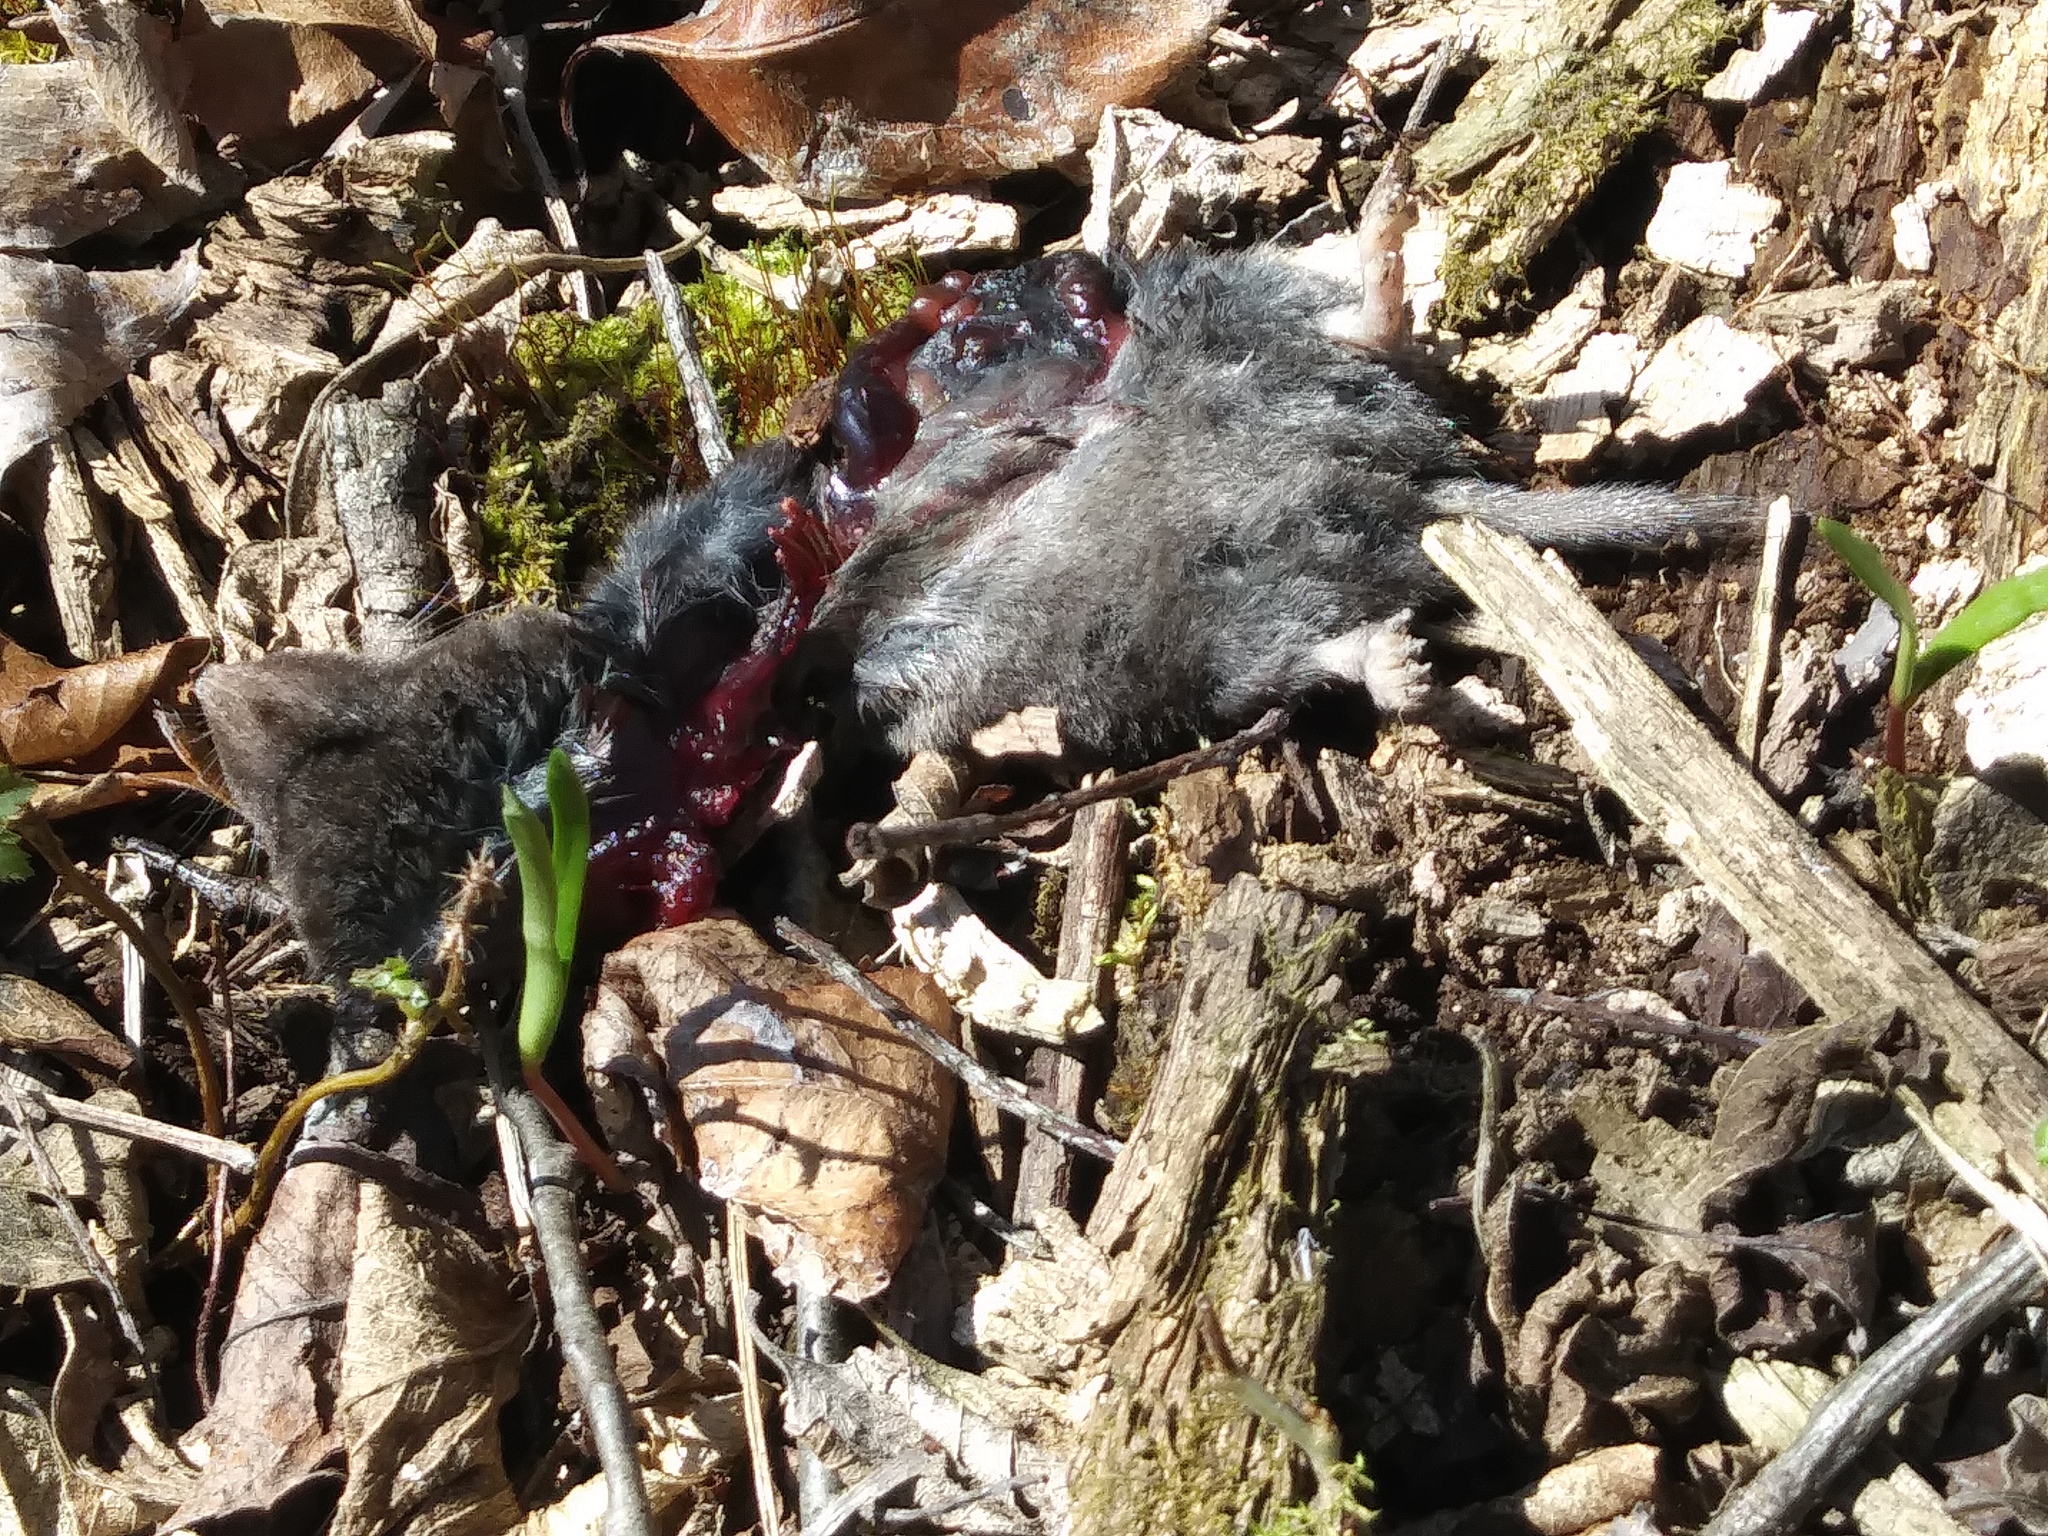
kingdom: Animalia
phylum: Chordata
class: Mammalia
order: Soricomorpha
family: Soricidae
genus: Blarina
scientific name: Blarina brevicauda
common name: Northern short-tailed shrew
